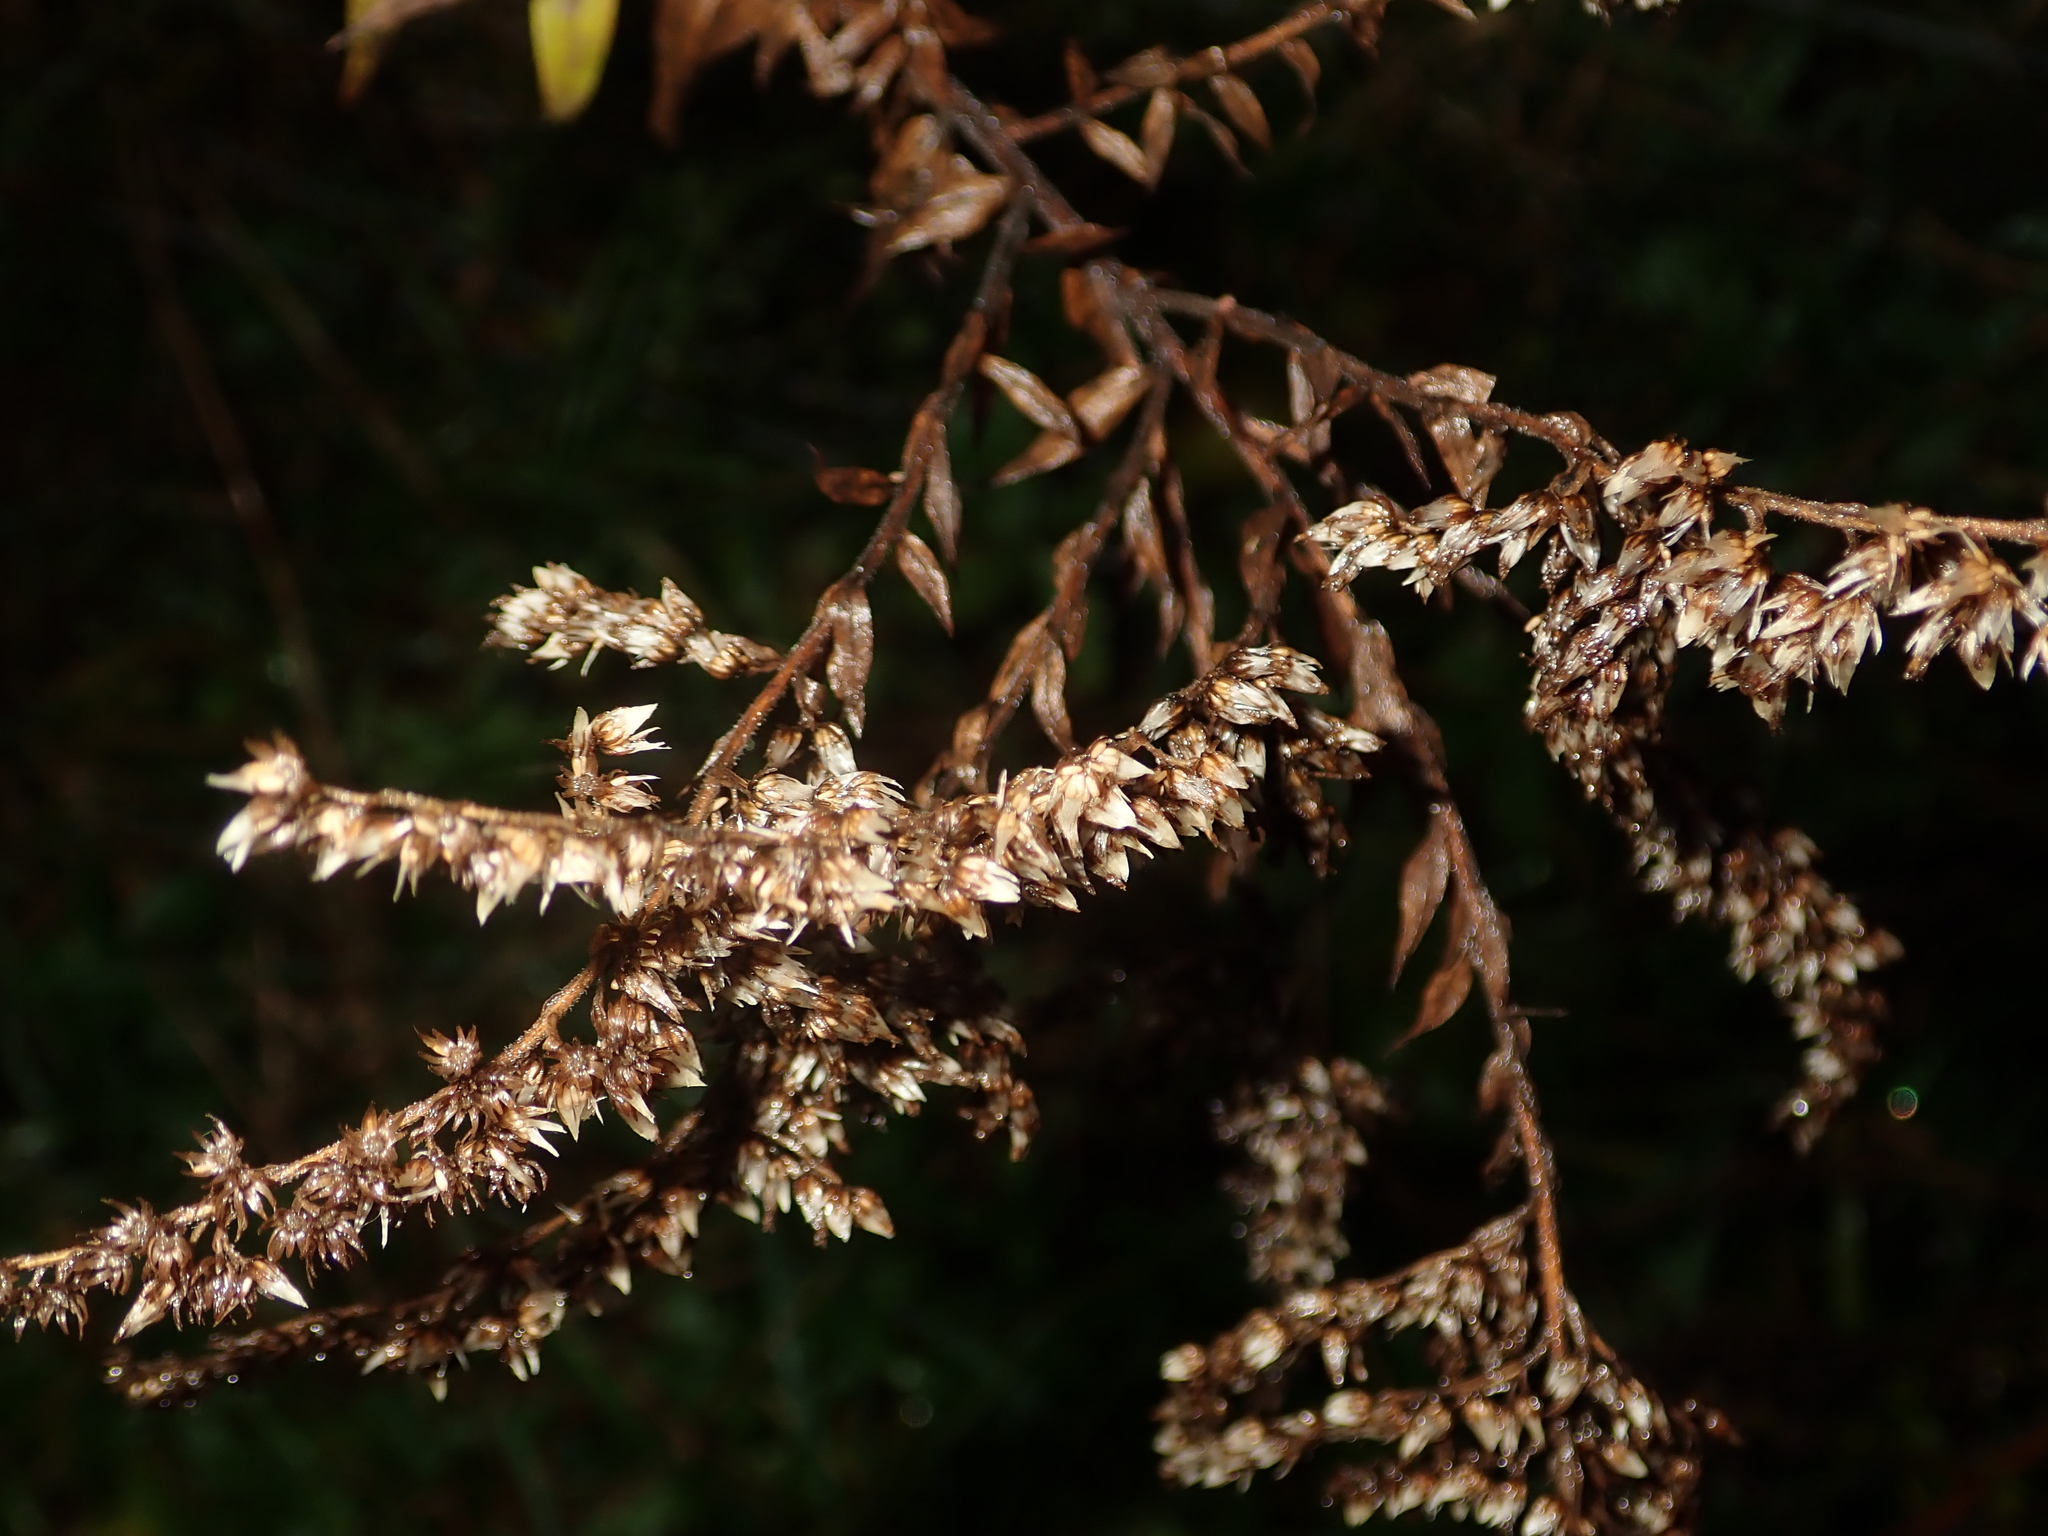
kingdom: Plantae
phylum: Tracheophyta
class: Magnoliopsida
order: Asterales
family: Asteraceae
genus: Solidago
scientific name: Solidago canadensis
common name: Canada goldenrod
